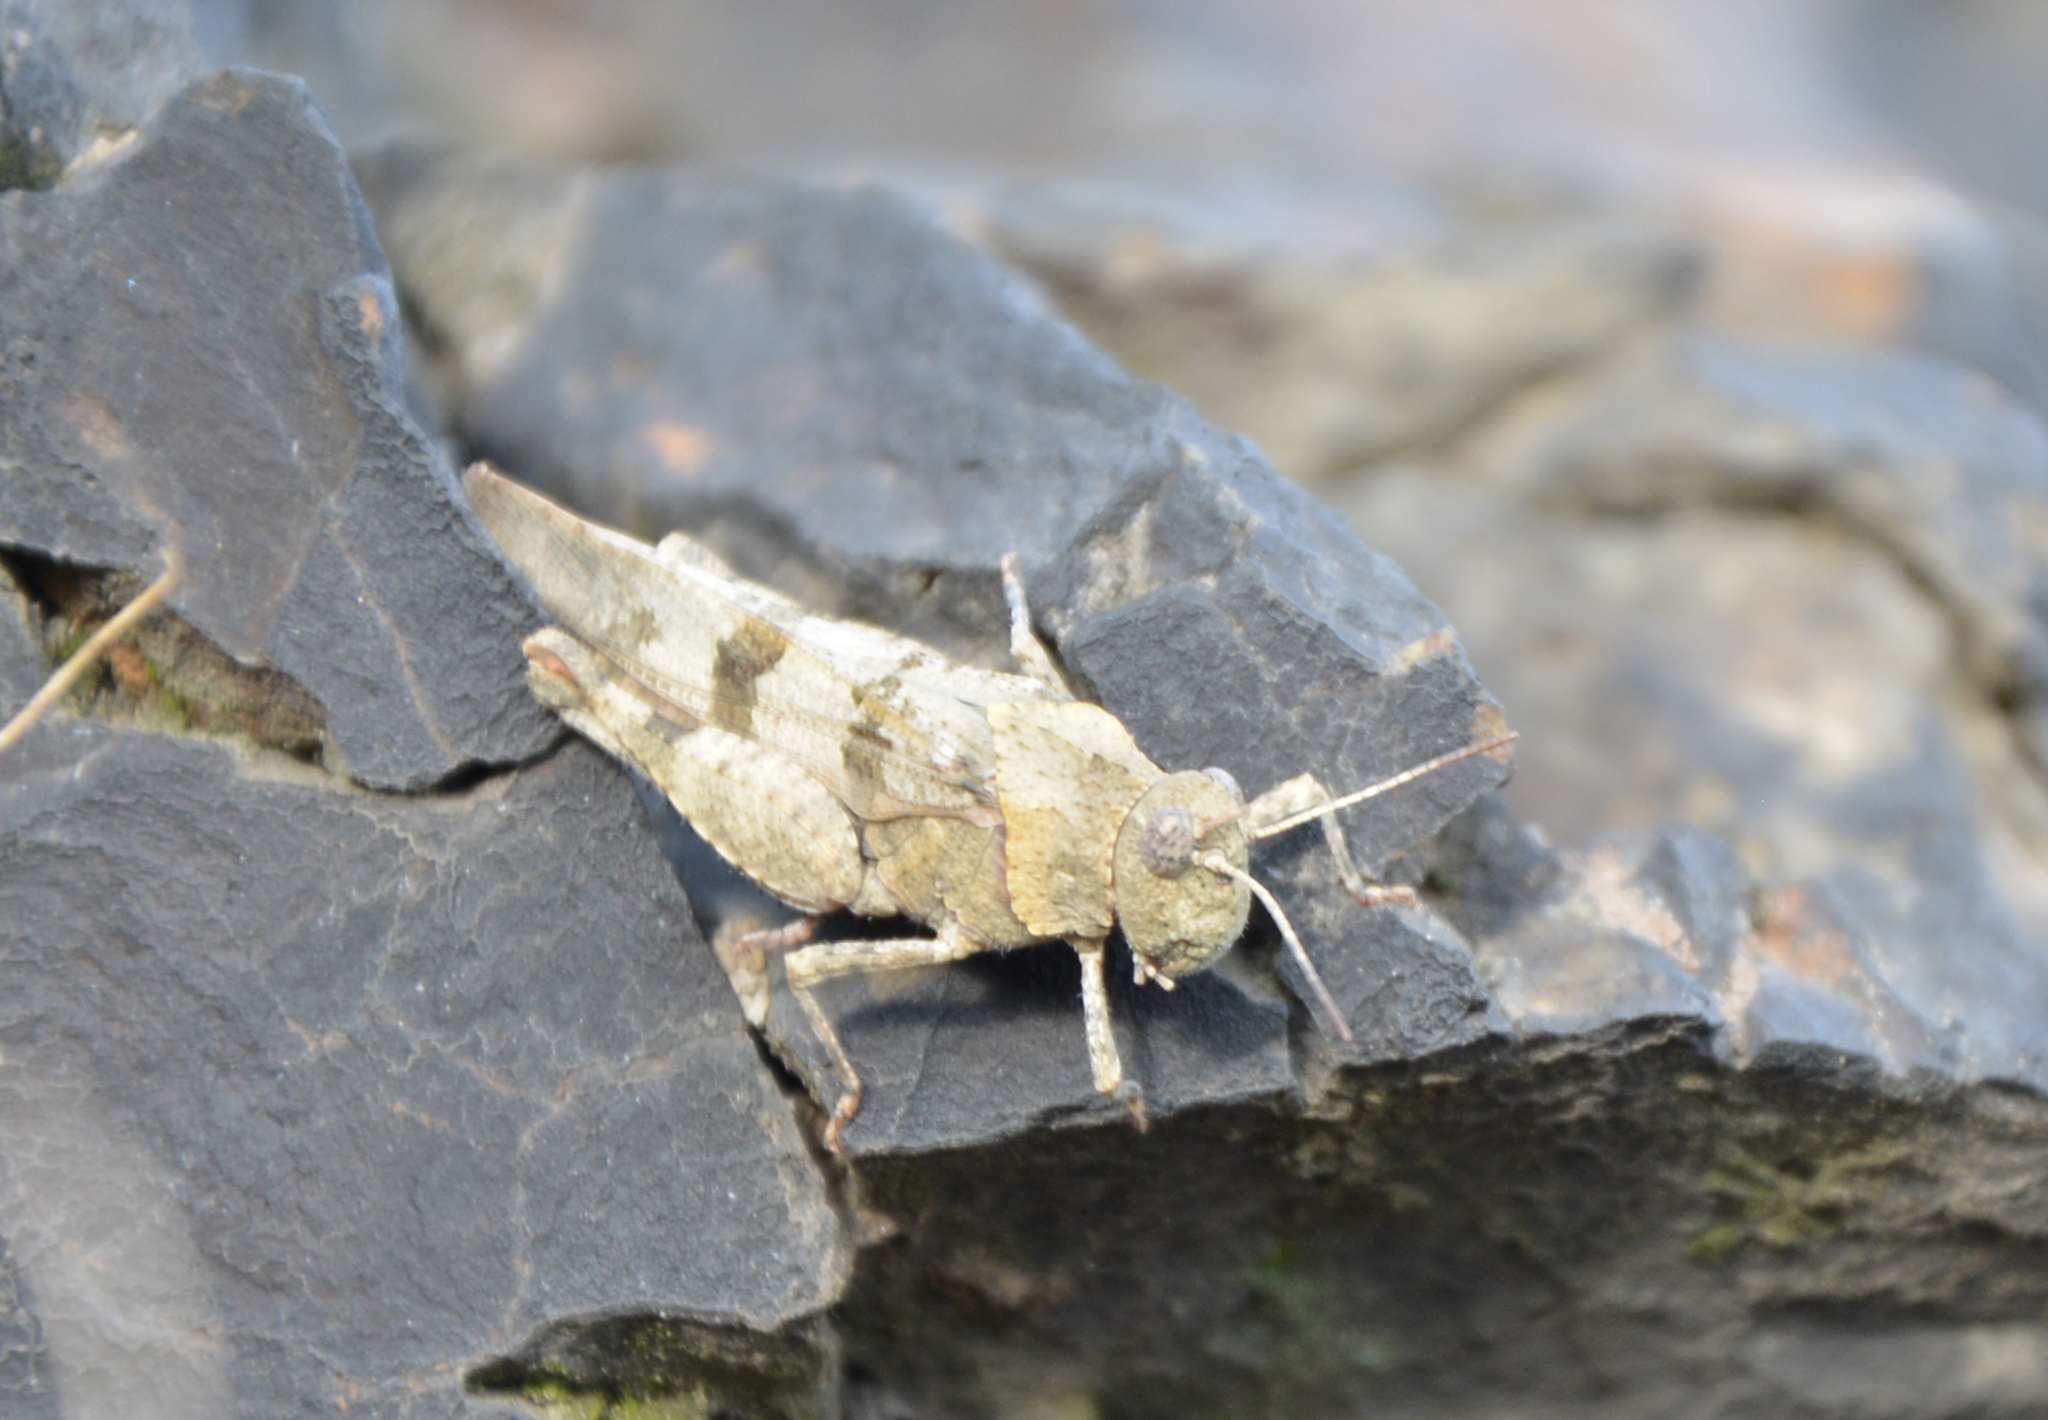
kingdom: Animalia
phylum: Arthropoda
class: Insecta
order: Orthoptera
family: Acrididae
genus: Oedipoda
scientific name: Oedipoda caerulescens
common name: Blue-winged grasshopper
